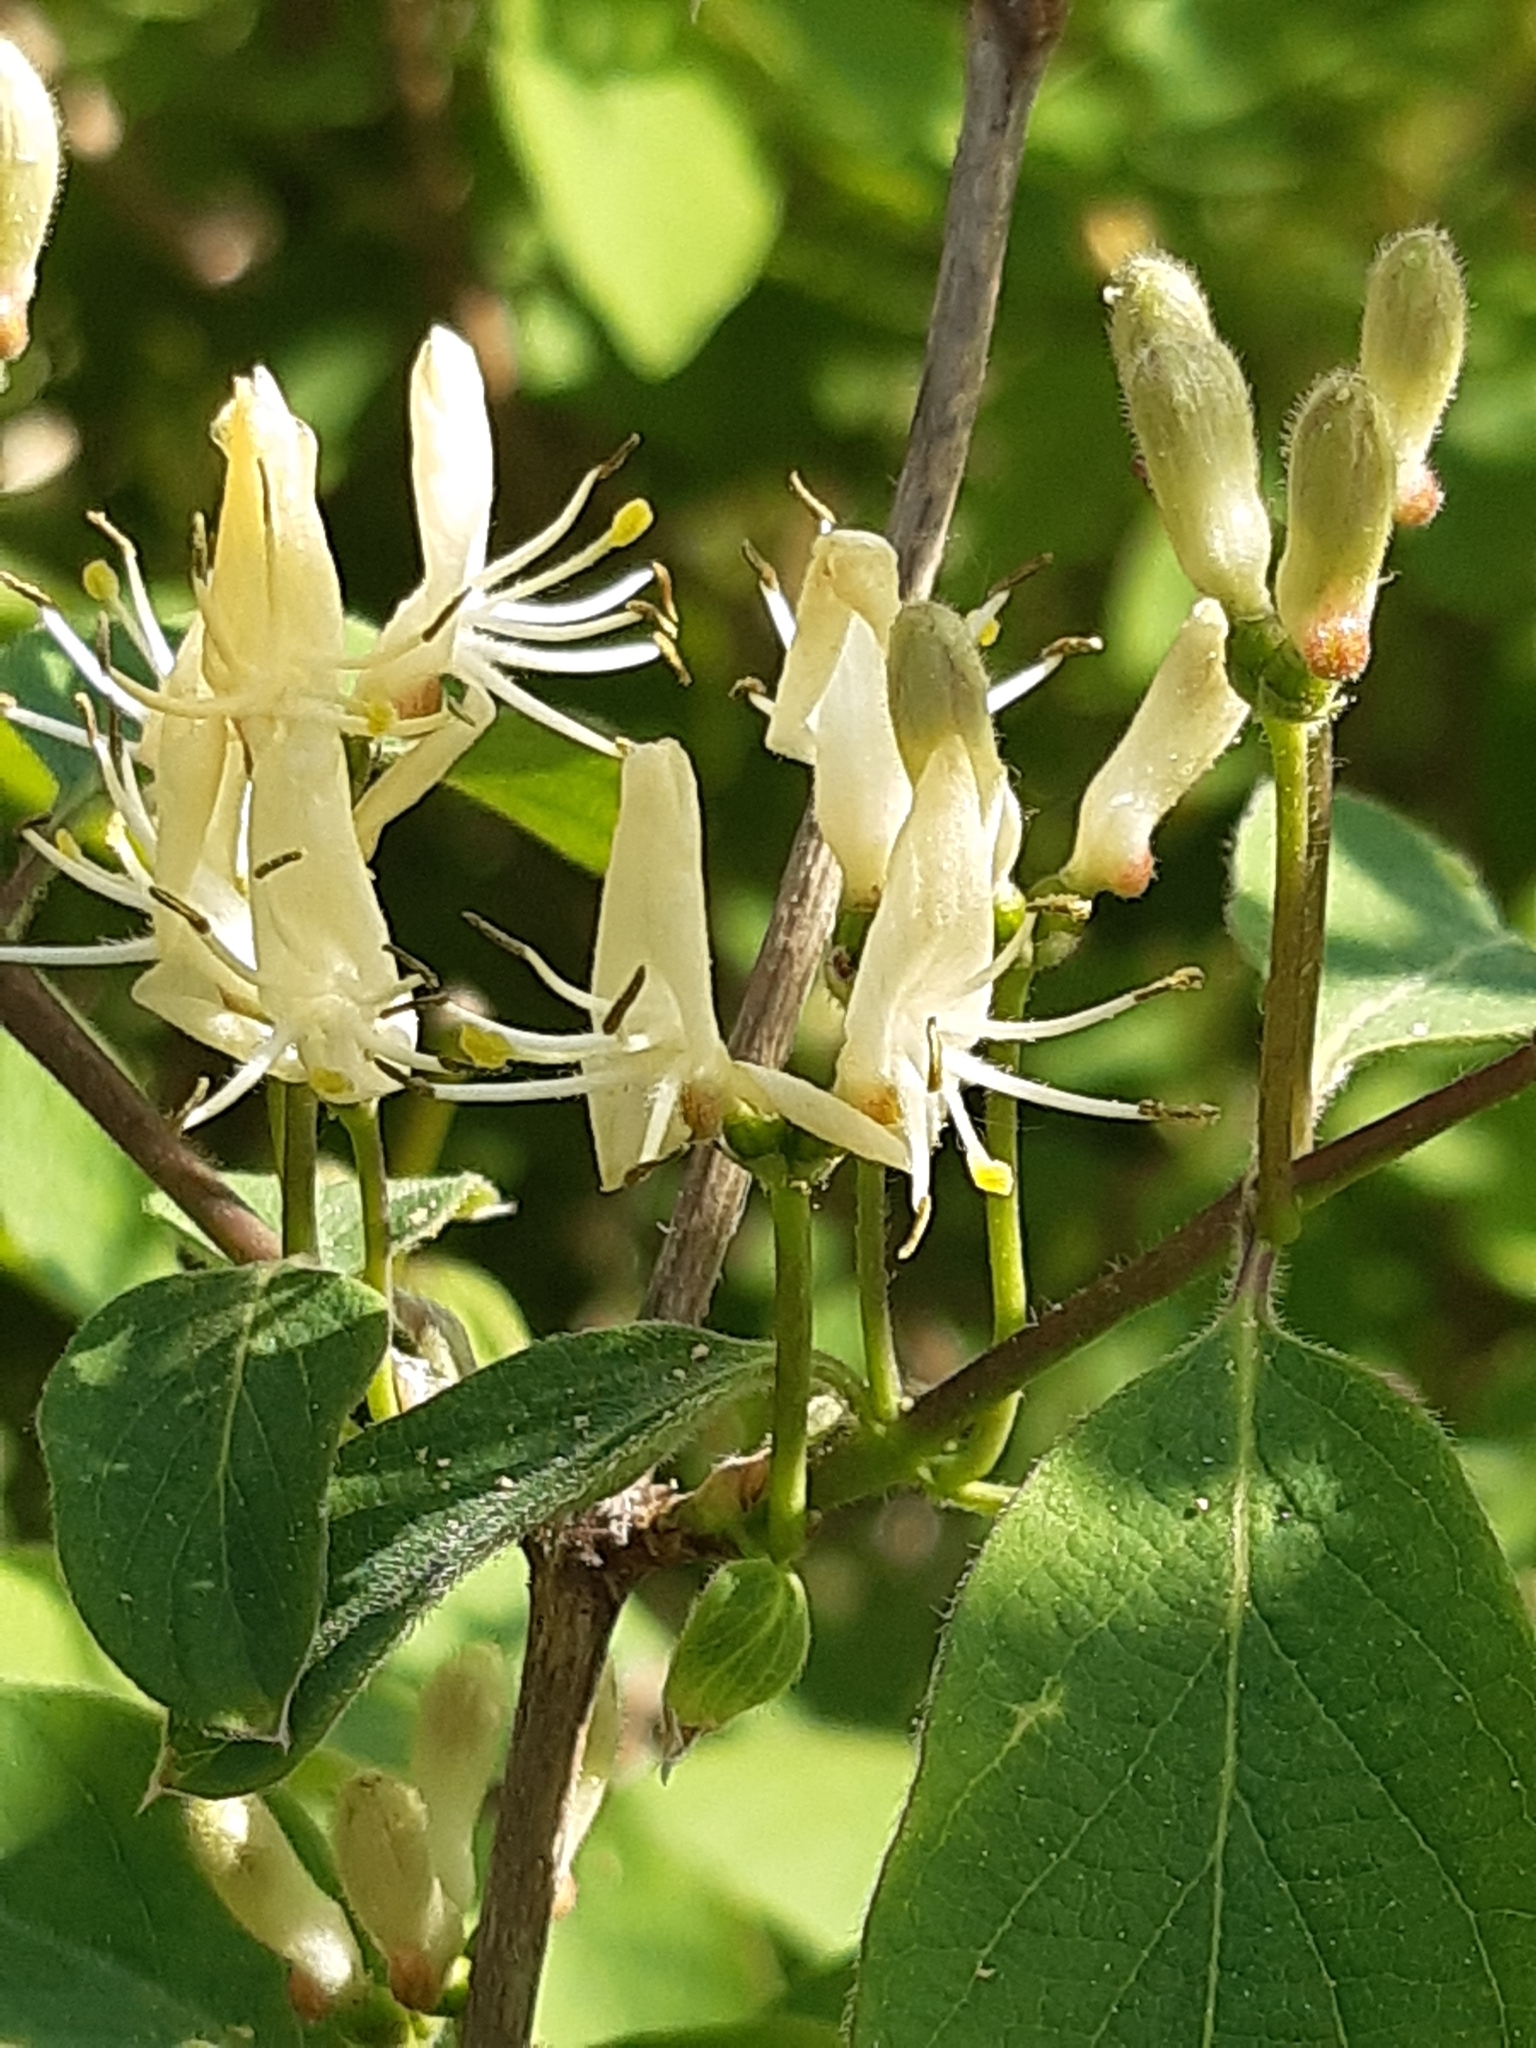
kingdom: Plantae
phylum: Tracheophyta
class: Magnoliopsida
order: Dipsacales
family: Caprifoliaceae
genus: Lonicera
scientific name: Lonicera xylosteum
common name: Fly honeysuckle
